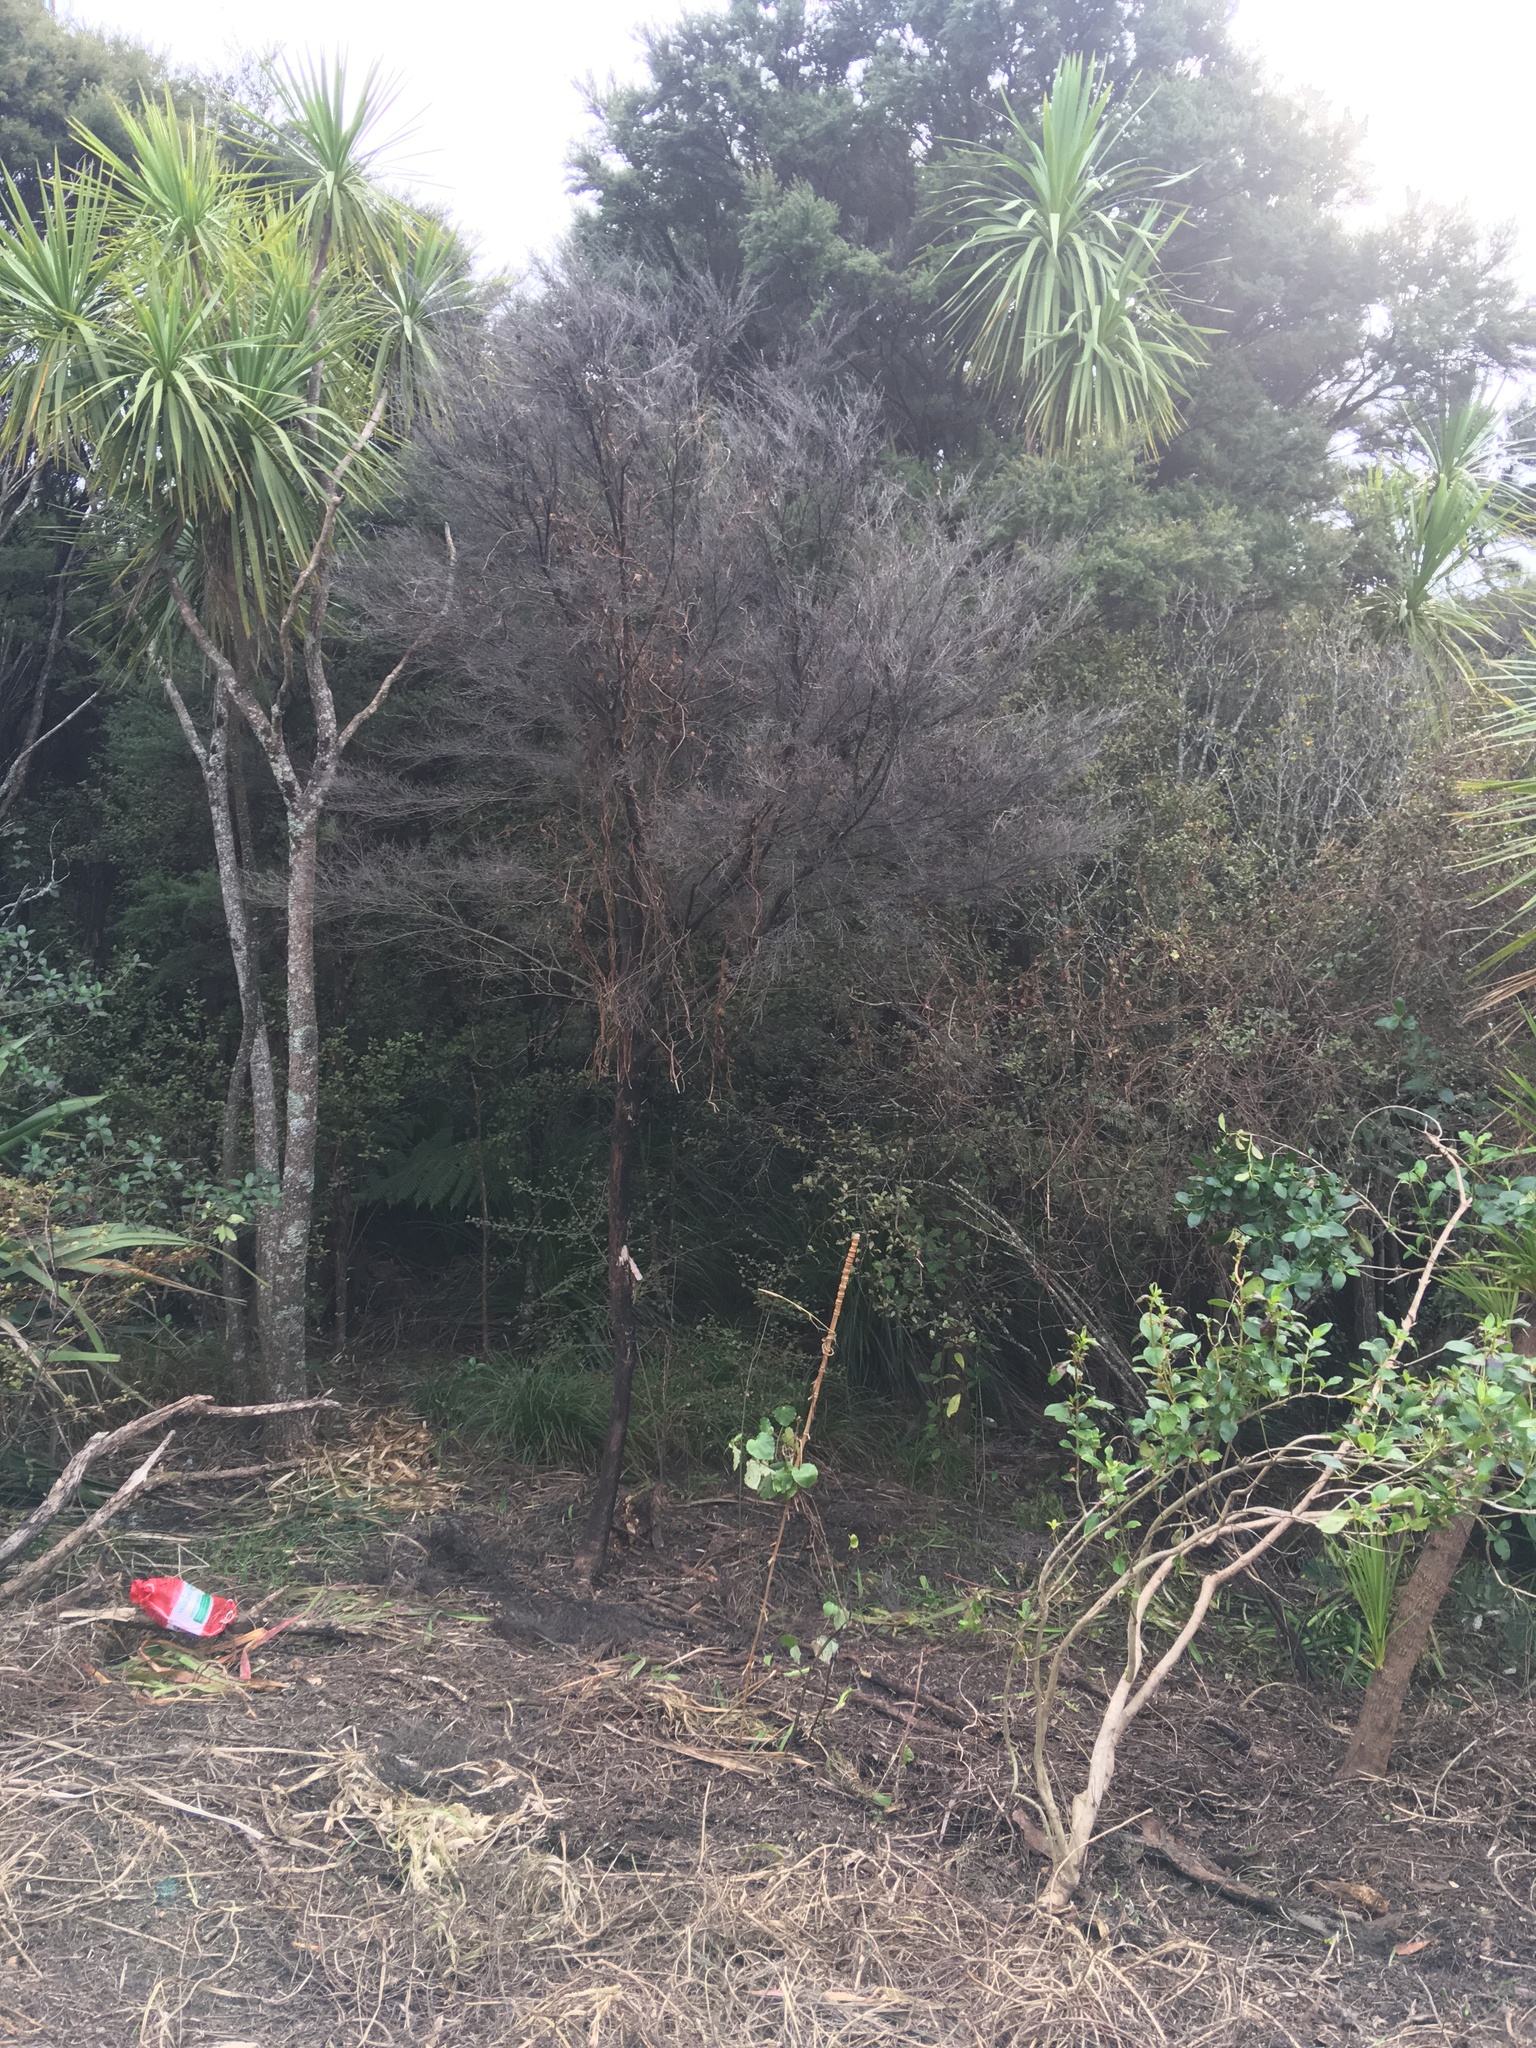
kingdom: Plantae
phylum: Tracheophyta
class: Magnoliopsida
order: Piperales
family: Piperaceae
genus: Macropiper
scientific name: Macropiper excelsum
